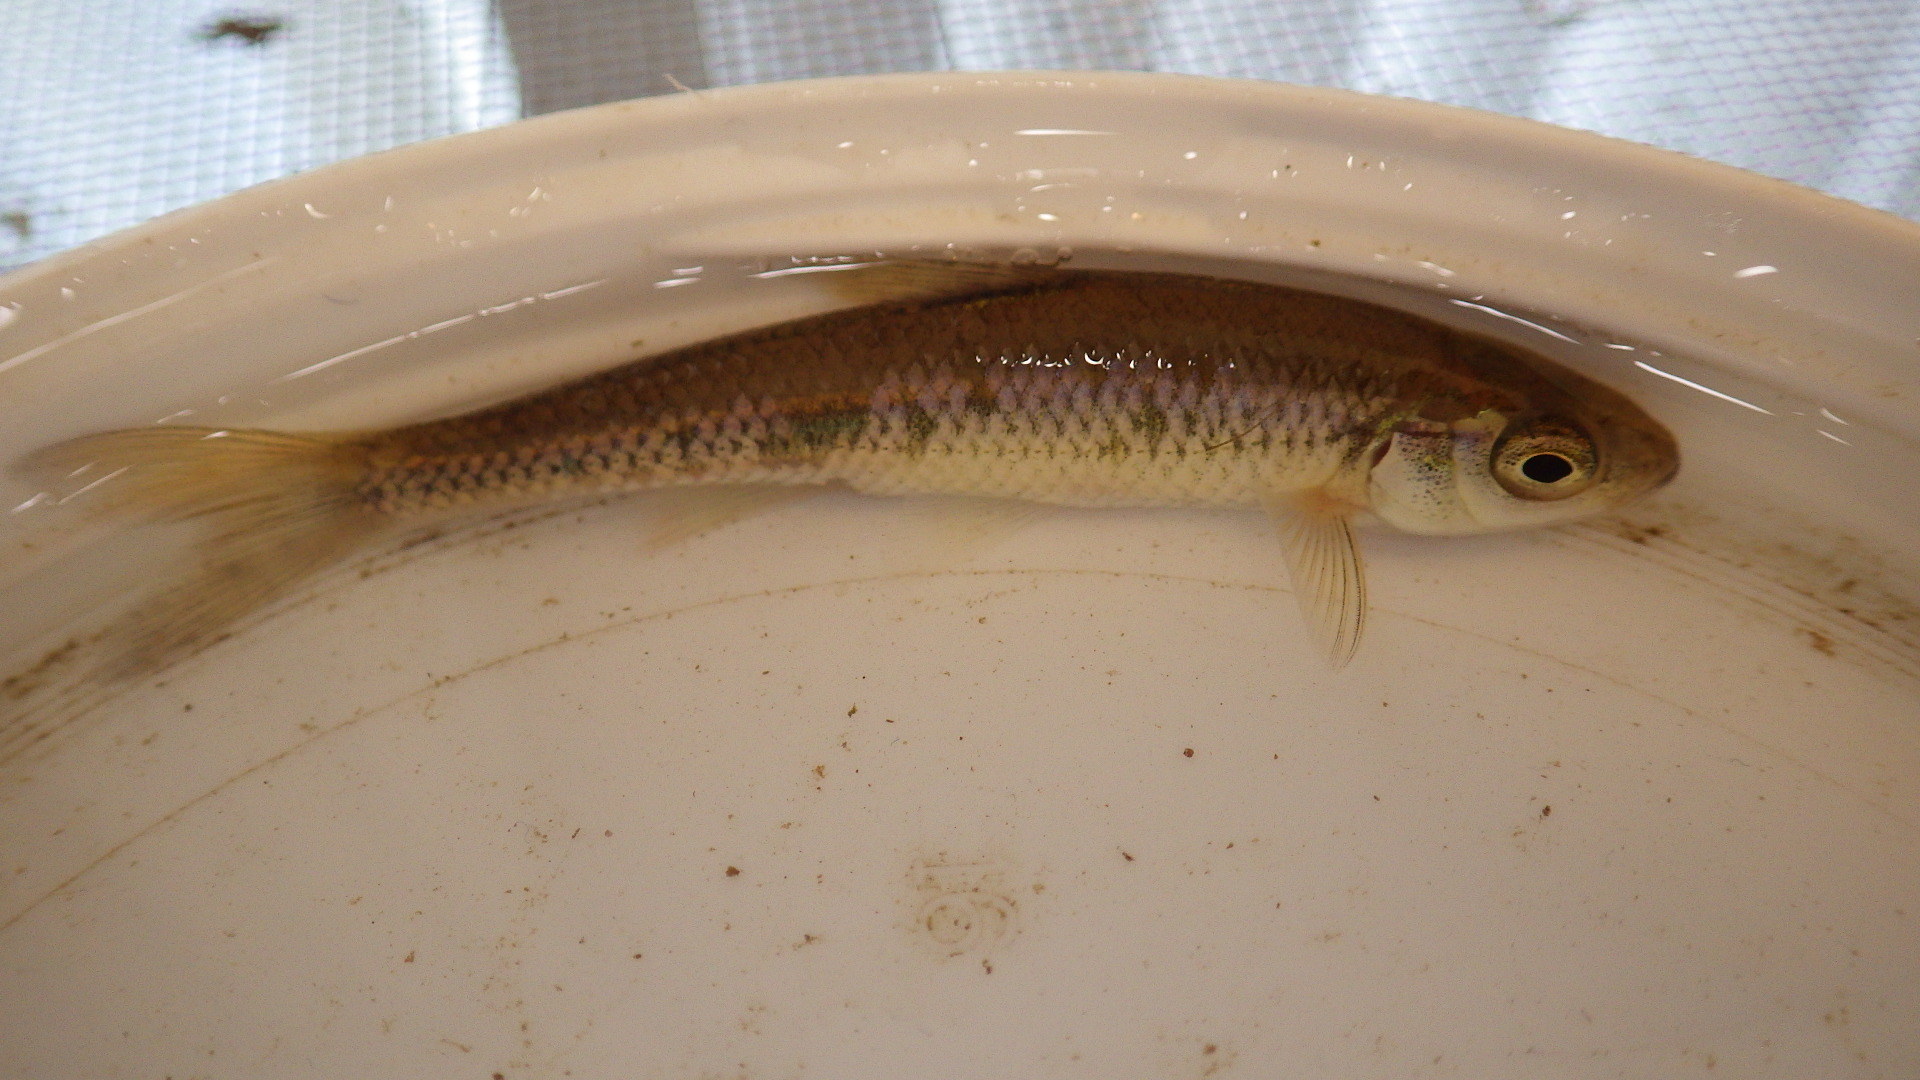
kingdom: Animalia
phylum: Chordata
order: Cypriniformes
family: Cyprinidae
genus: Luxilus
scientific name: Luxilus cornutus
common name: Common shiner
